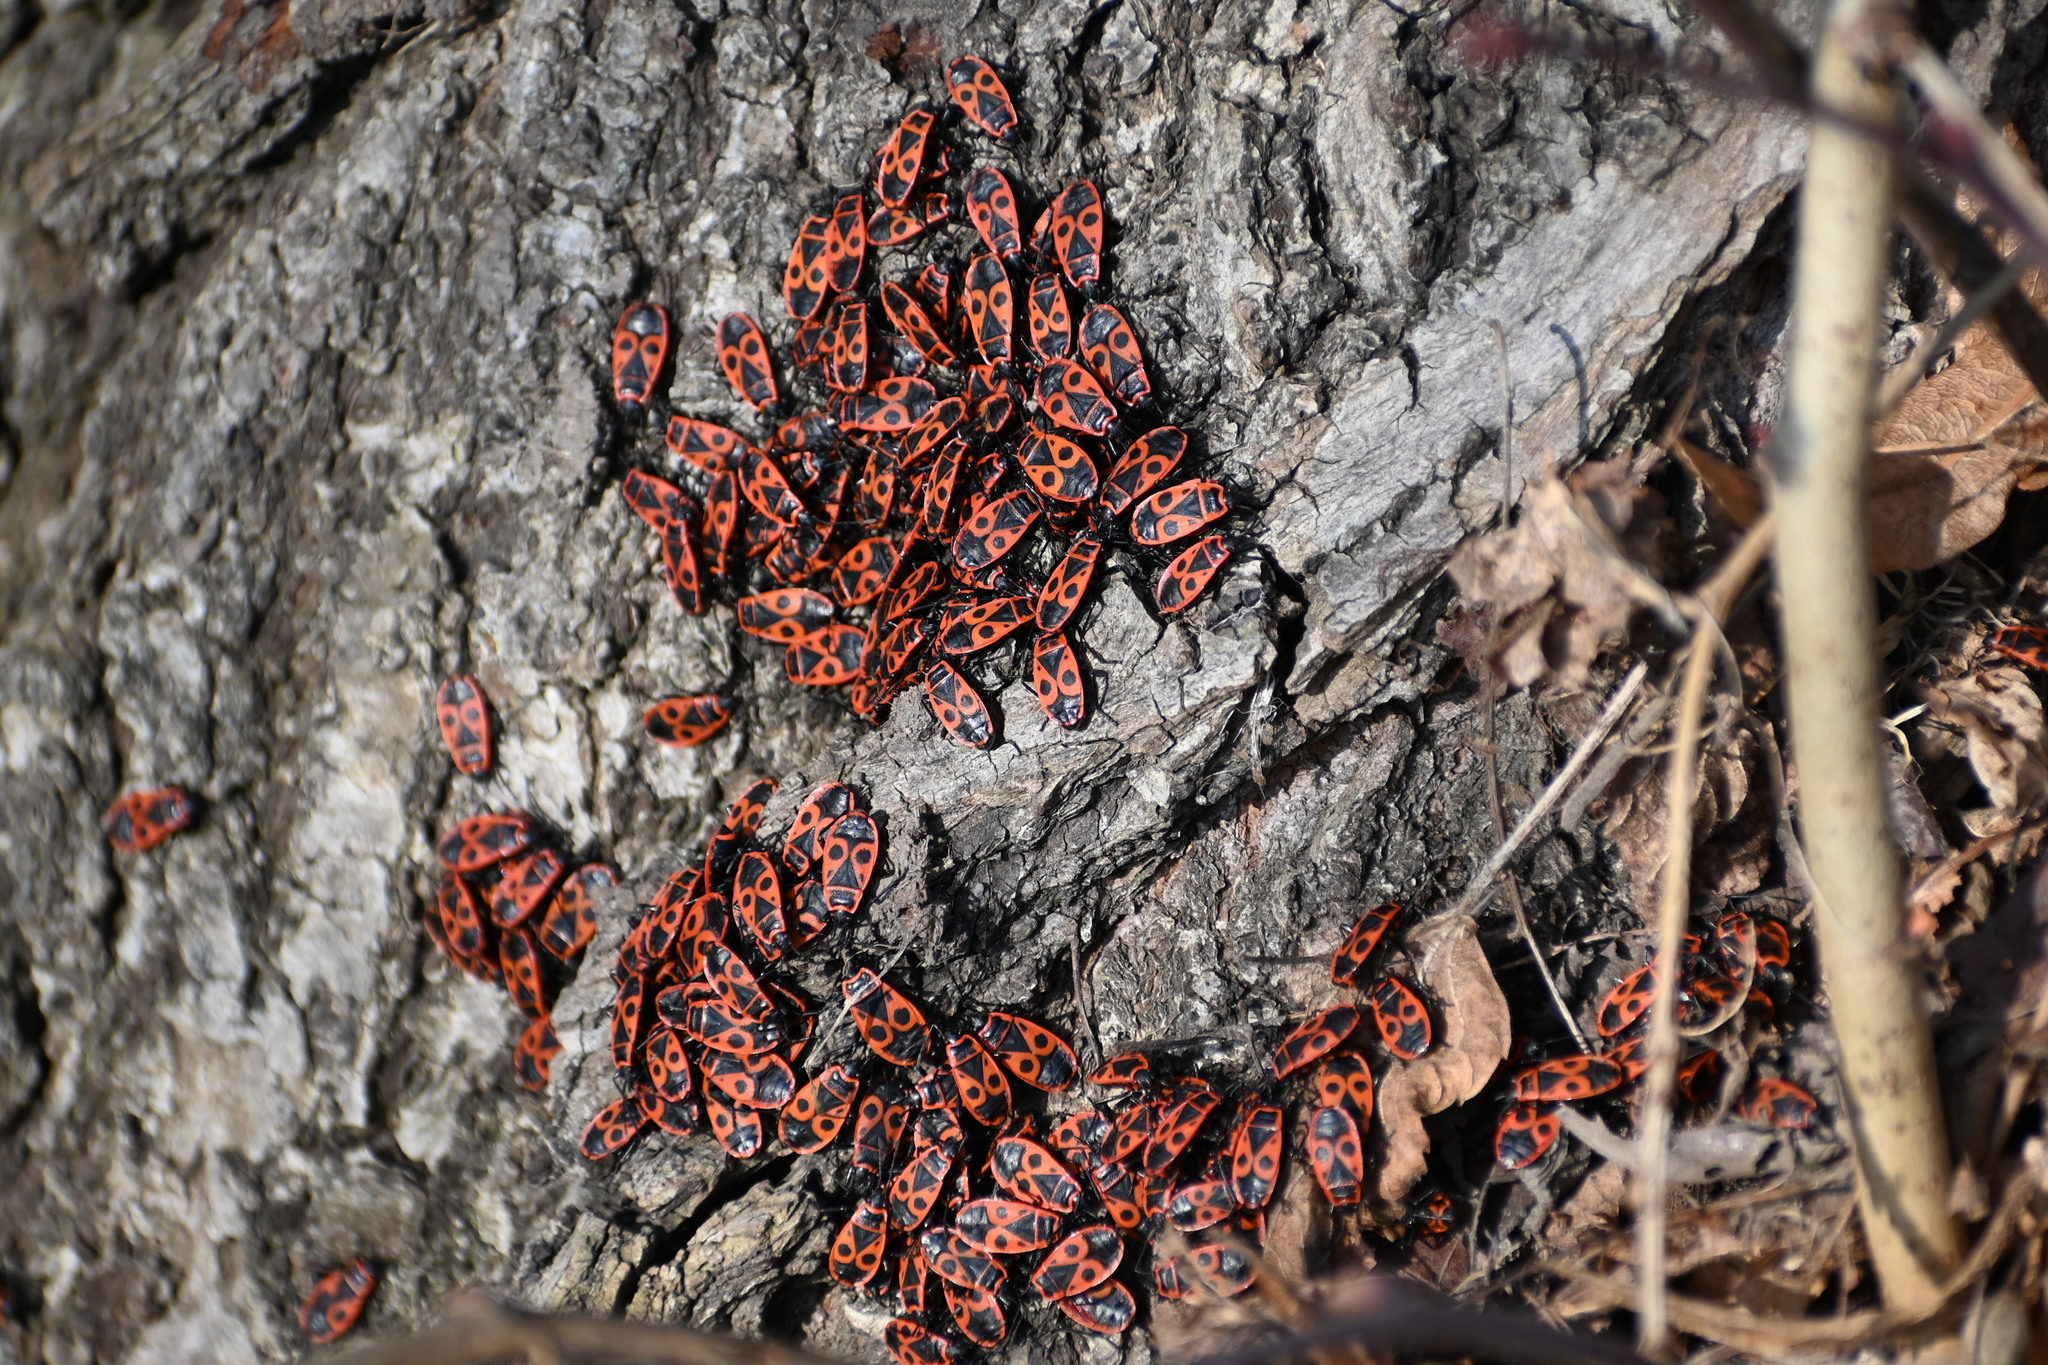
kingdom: Animalia
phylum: Arthropoda
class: Insecta
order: Hemiptera
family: Pyrrhocoridae
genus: Pyrrhocoris
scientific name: Pyrrhocoris apterus
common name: Firebug
